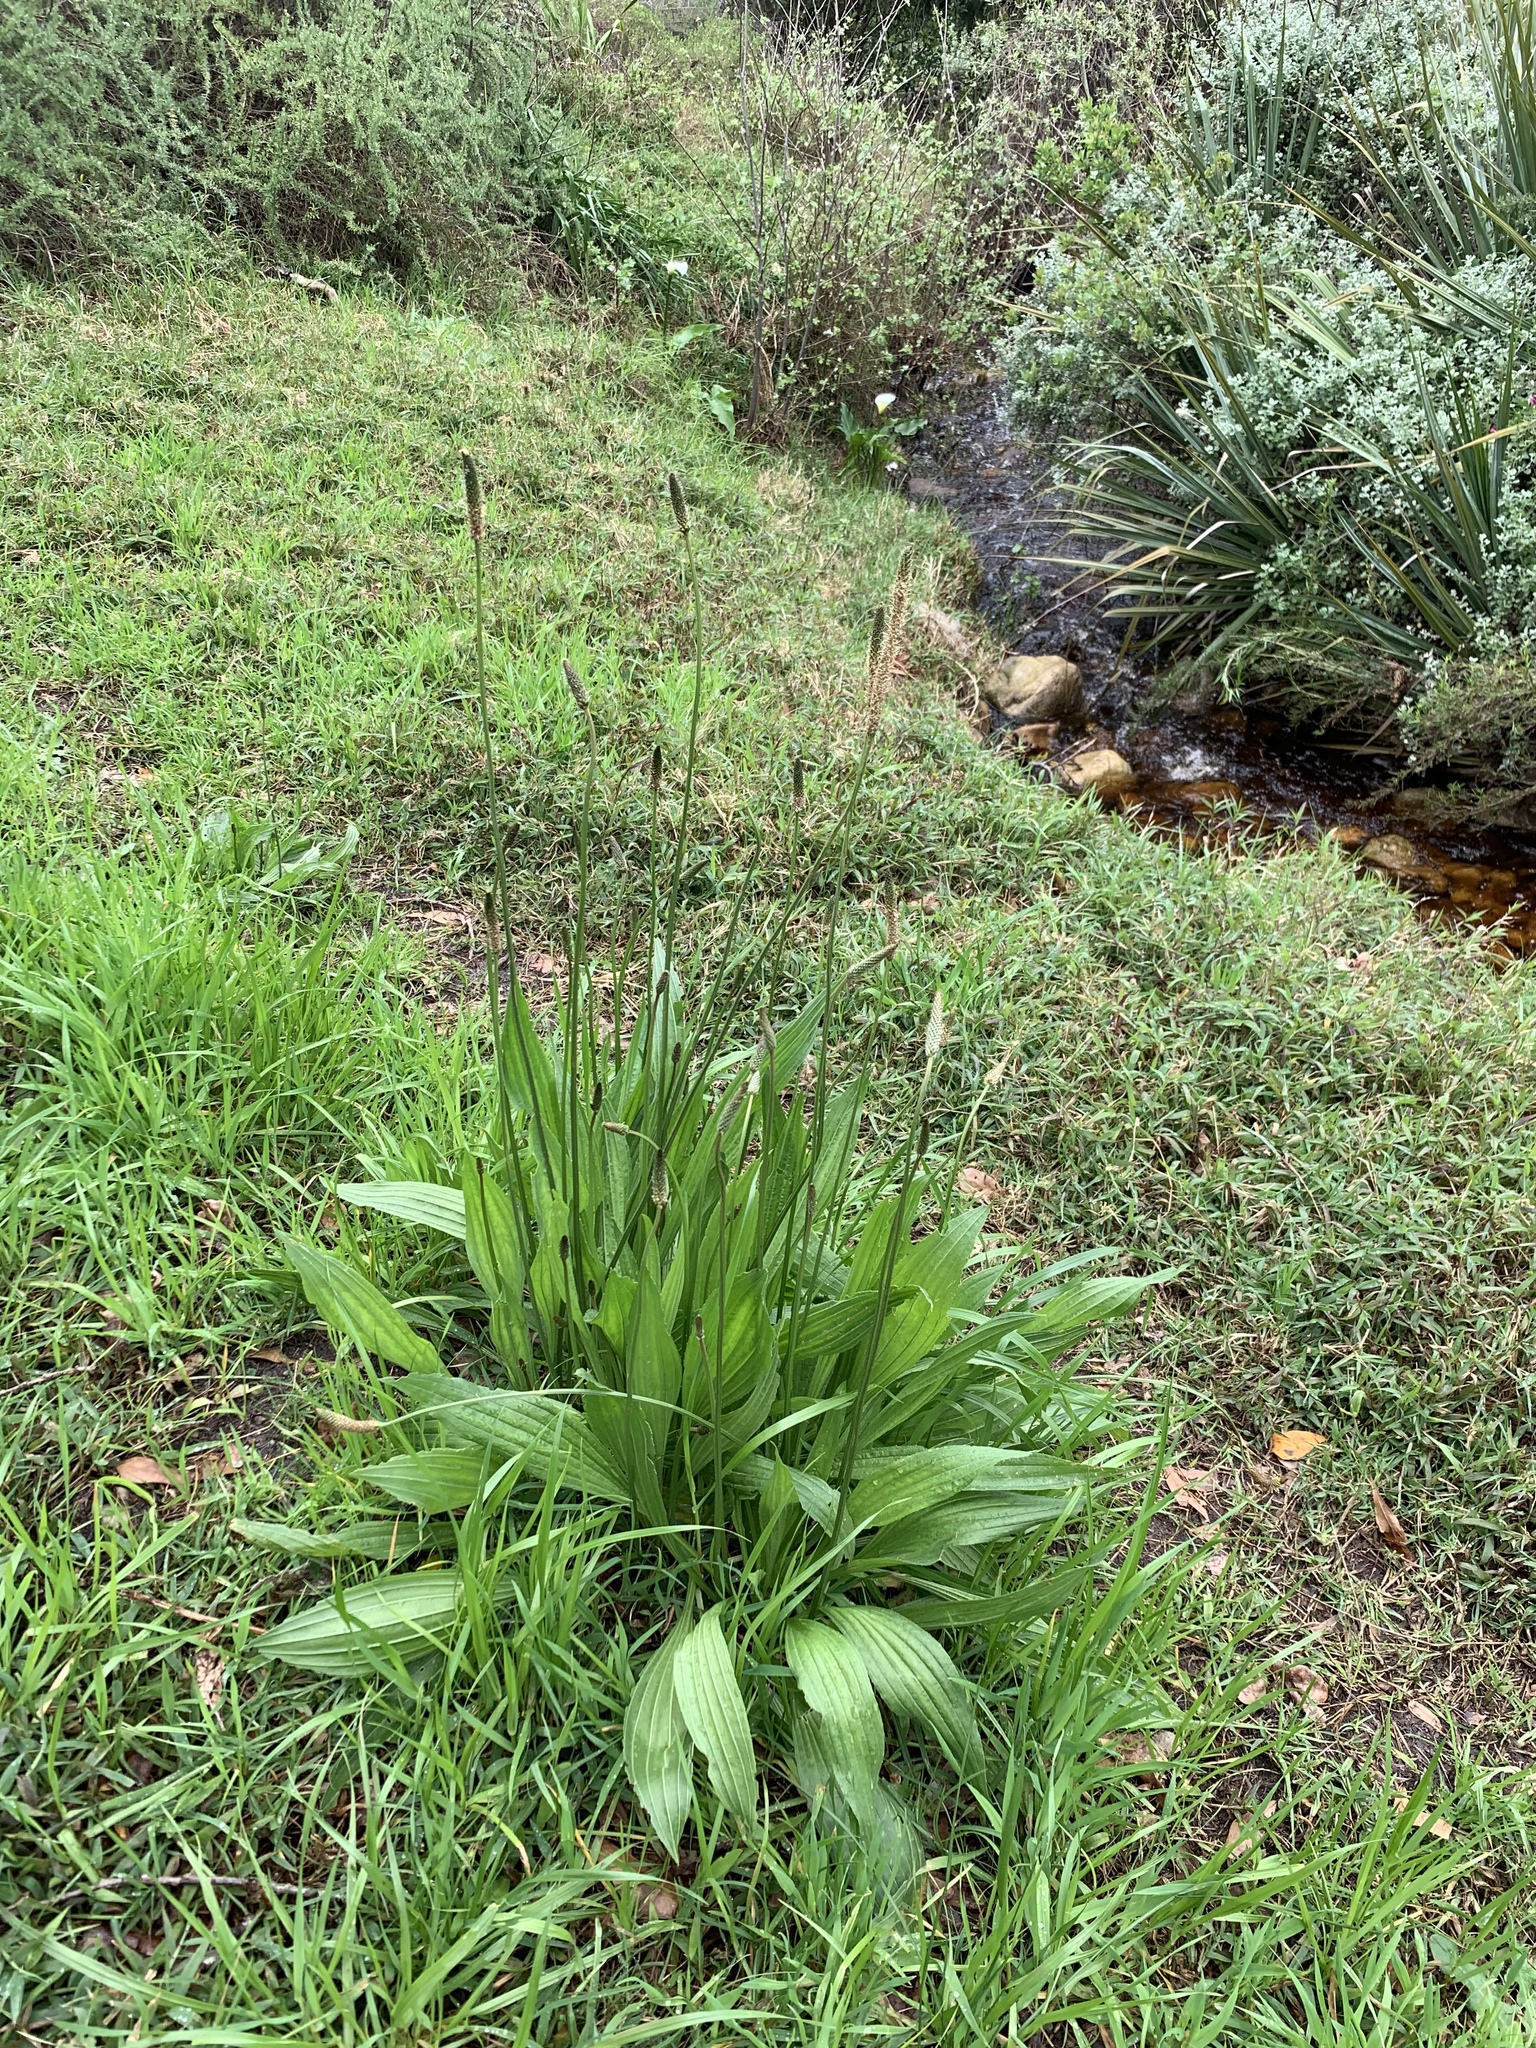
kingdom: Plantae
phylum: Tracheophyta
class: Magnoliopsida
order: Lamiales
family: Plantaginaceae
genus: Plantago
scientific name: Plantago lanceolata
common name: Ribwort plantain
